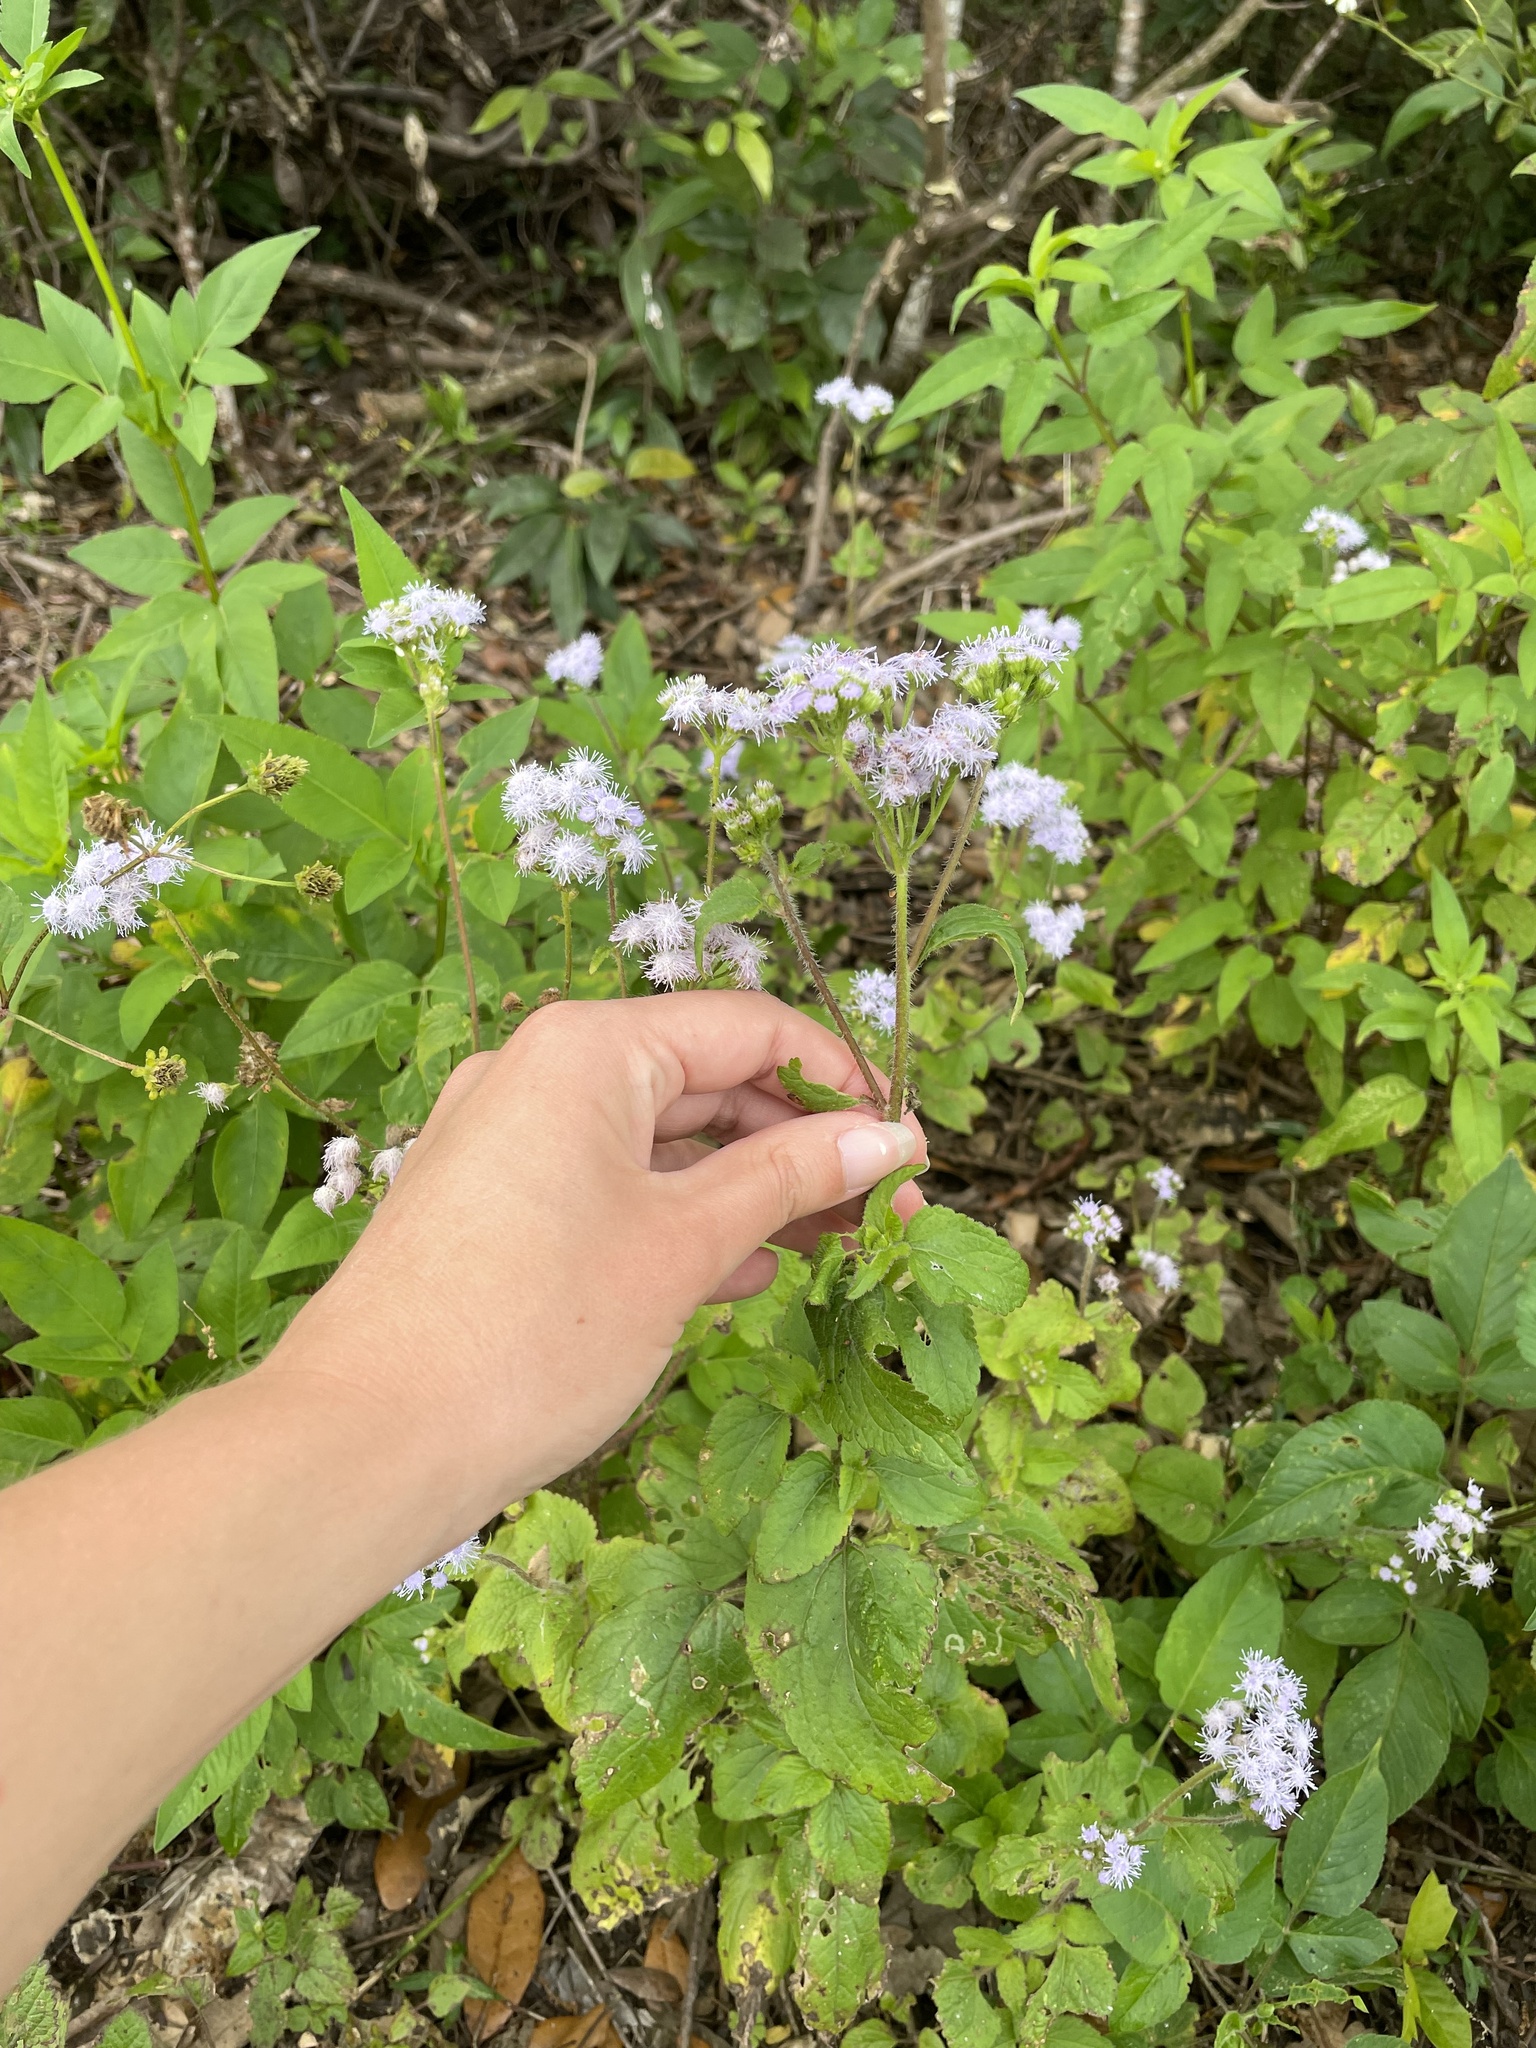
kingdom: Plantae
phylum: Tracheophyta
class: Magnoliopsida
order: Asterales
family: Asteraceae
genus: Ageratum
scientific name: Ageratum houstonianum
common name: Bluemink
